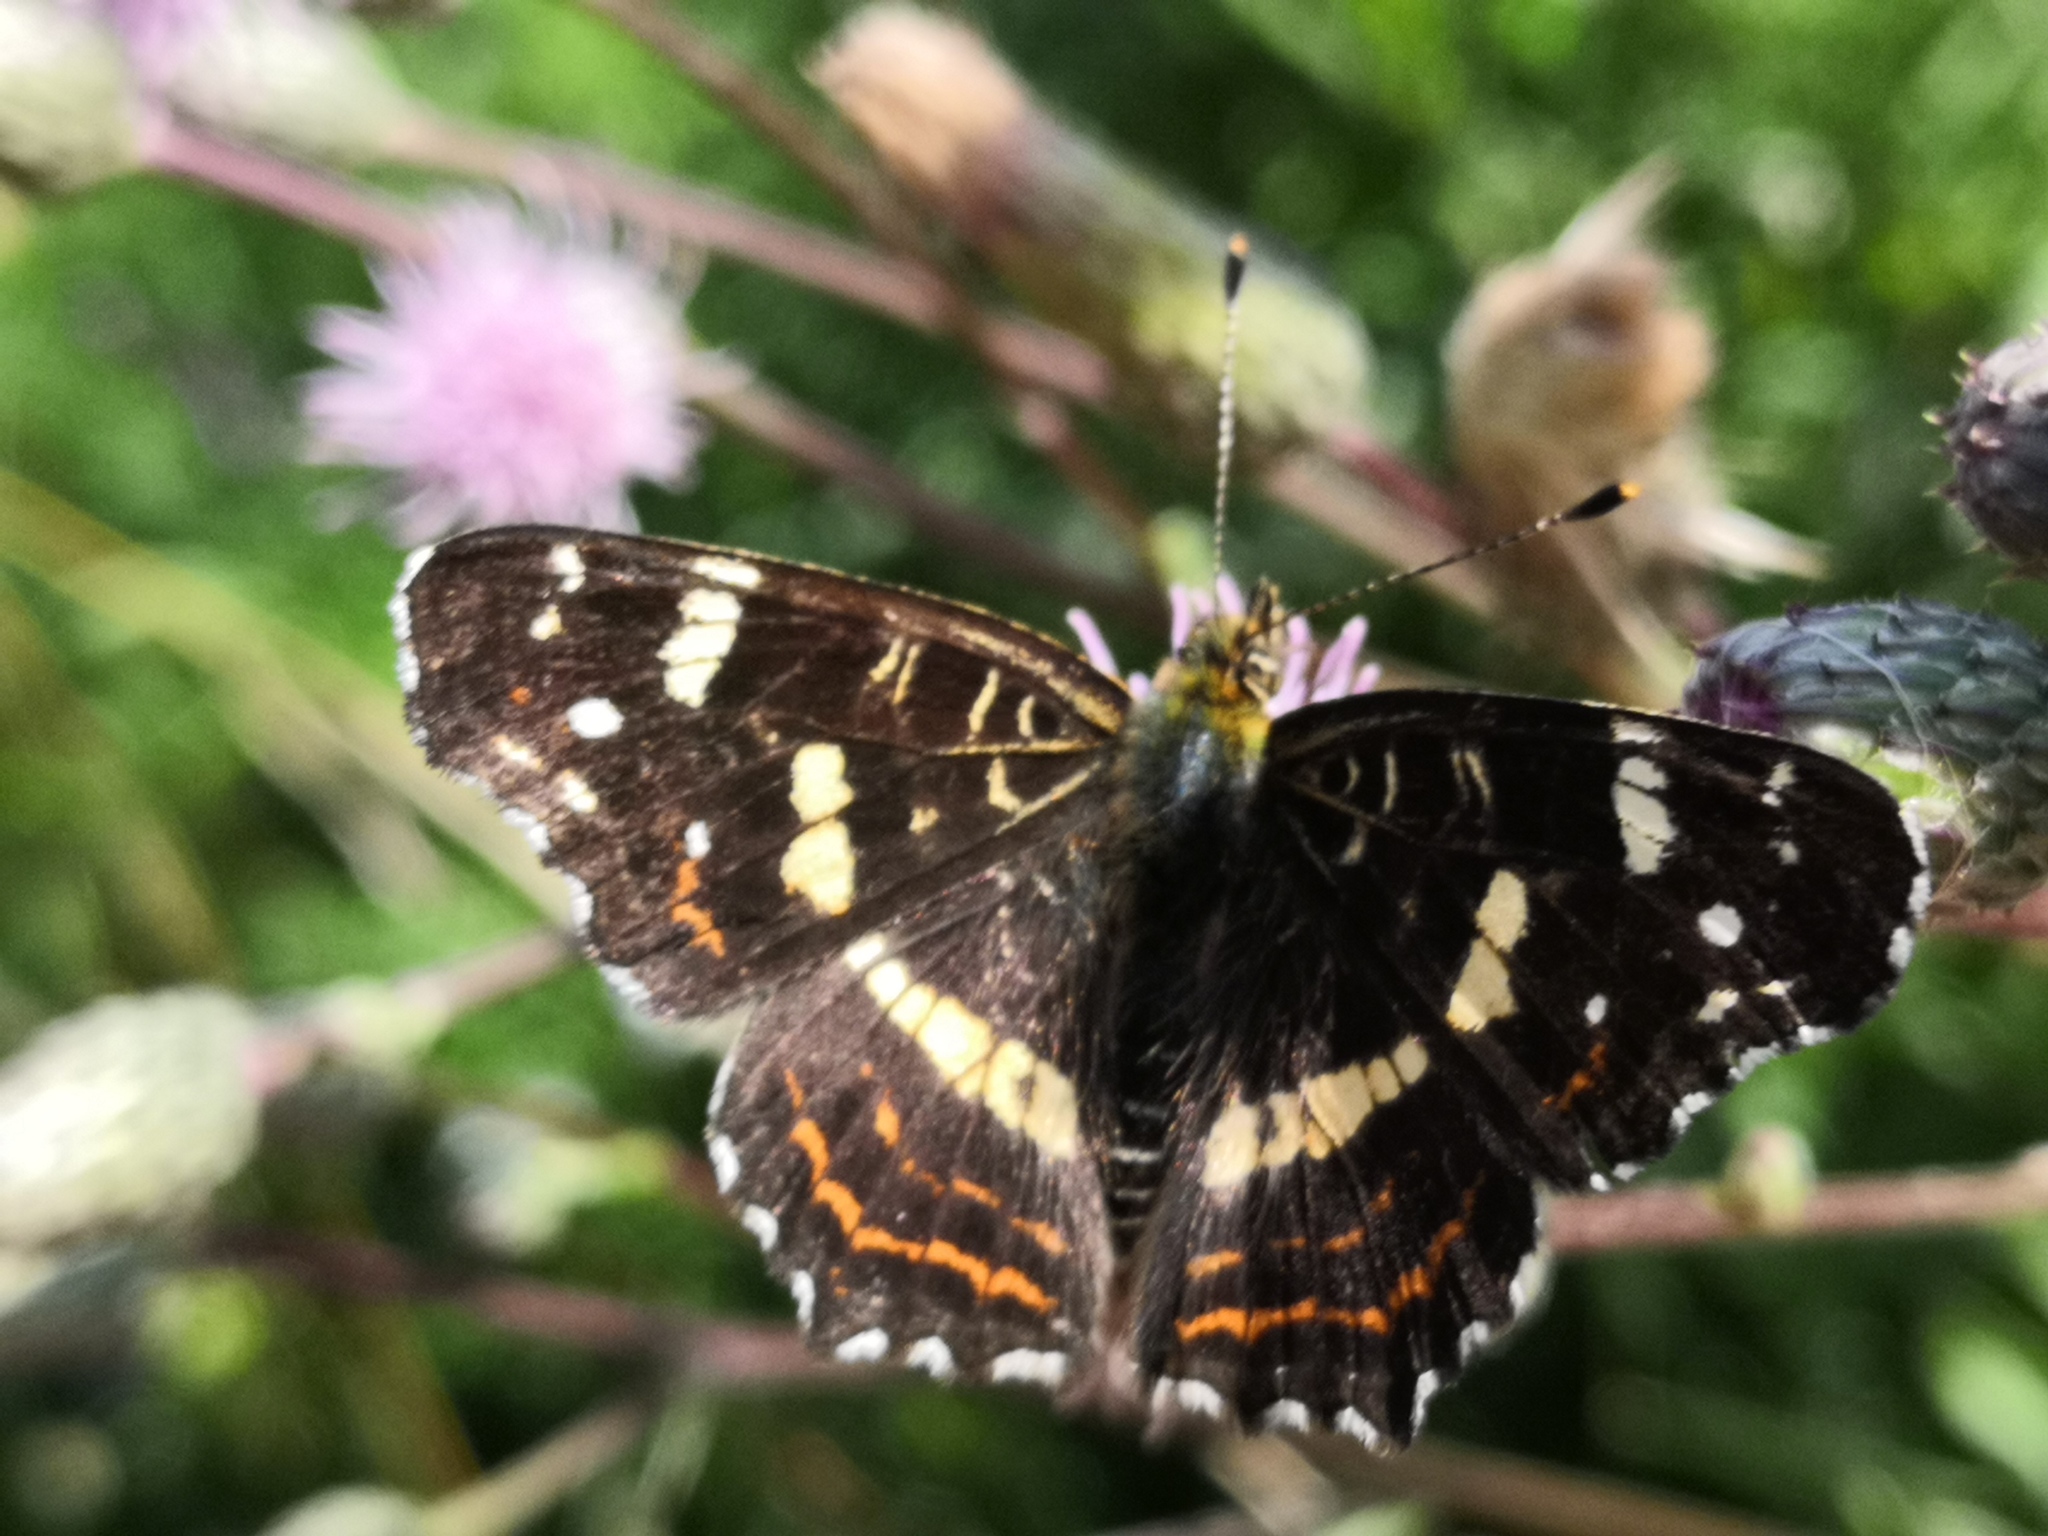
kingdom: Animalia
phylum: Arthropoda
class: Insecta
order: Lepidoptera
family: Nymphalidae
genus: Araschnia
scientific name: Araschnia levana
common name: Map butterfly
